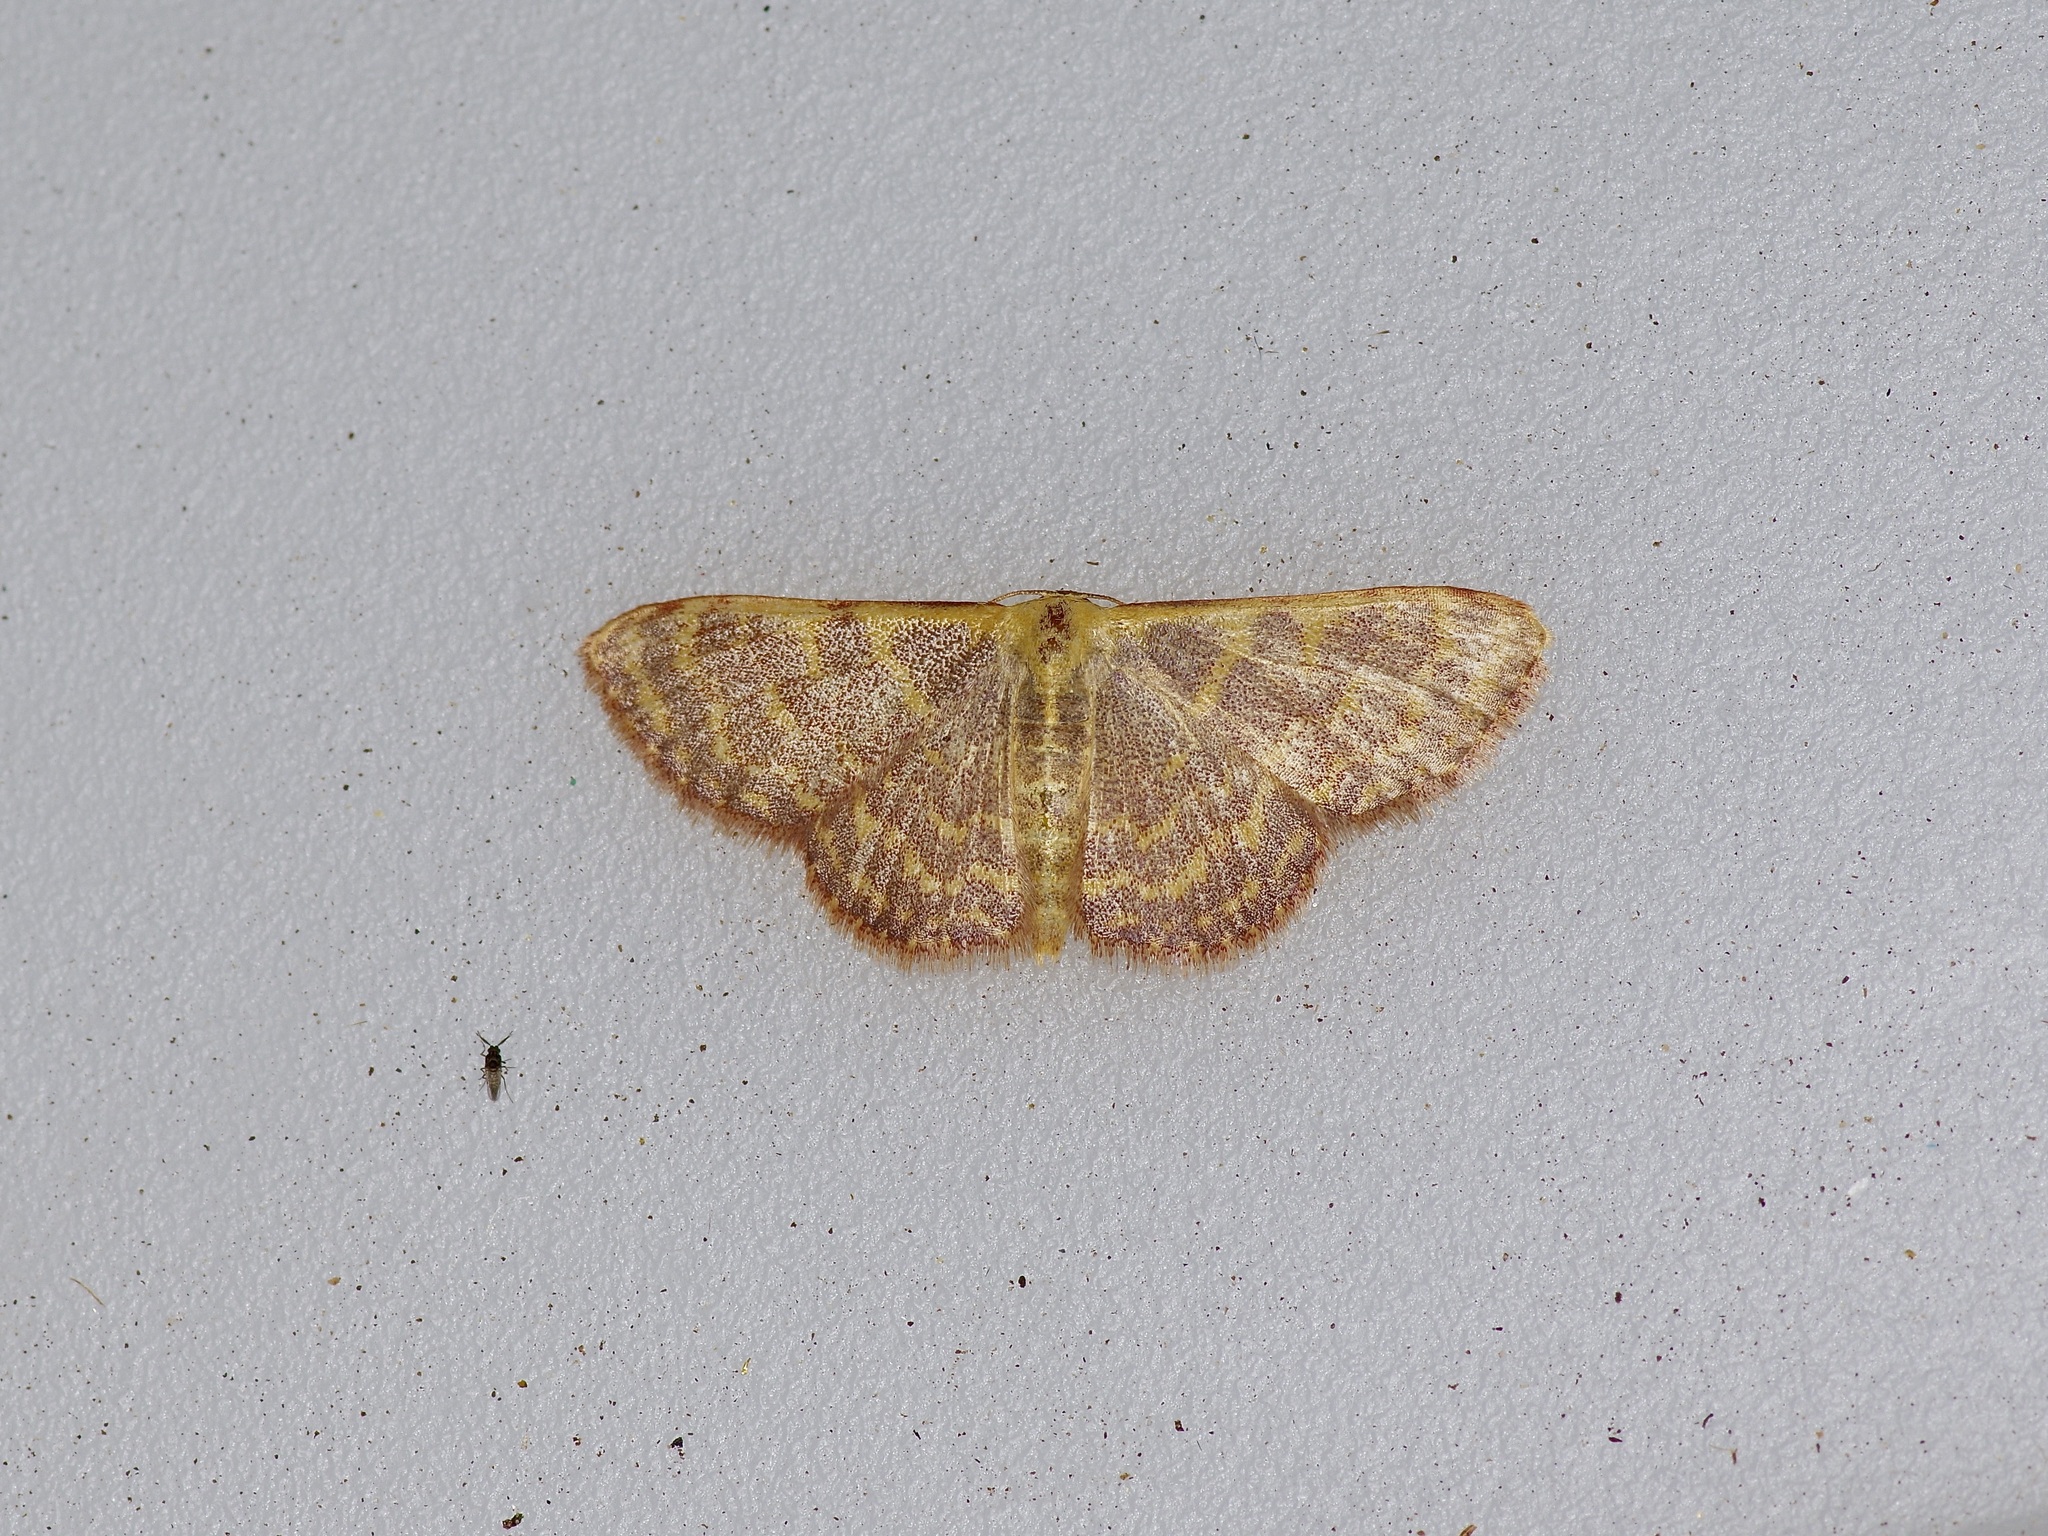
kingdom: Animalia
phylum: Arthropoda
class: Insecta
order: Lepidoptera
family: Geometridae
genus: Leptostales
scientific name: Leptostales pannaria
